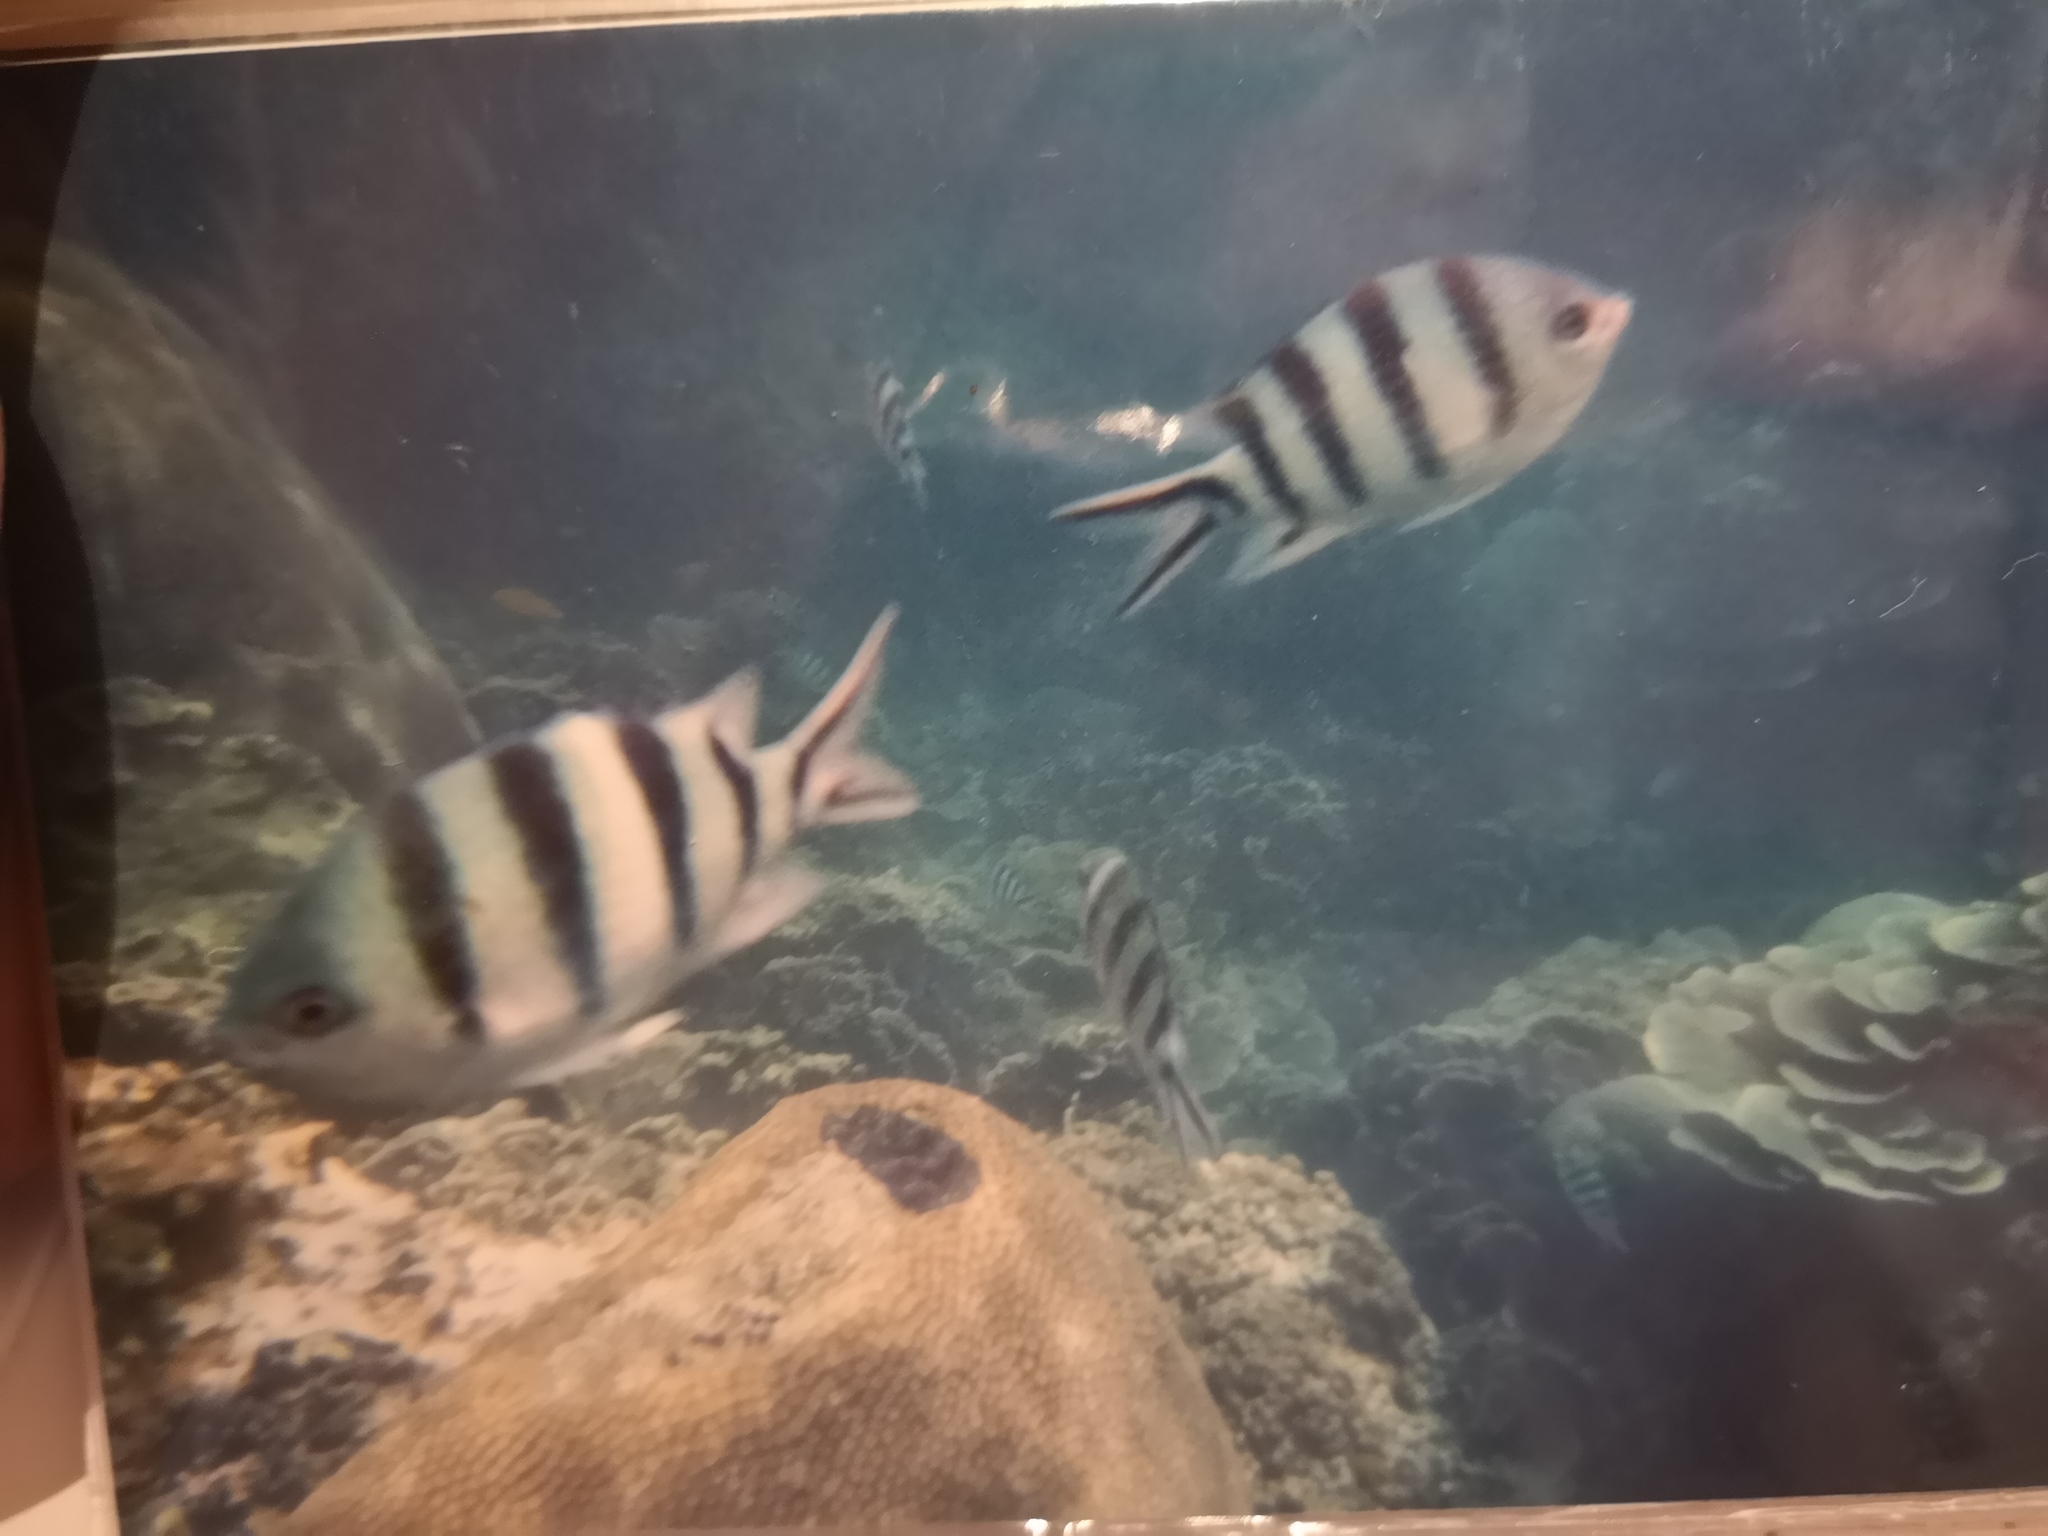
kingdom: Animalia
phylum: Chordata
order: Perciformes
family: Pomacentridae
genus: Abudefduf
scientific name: Abudefduf sexfasciatus
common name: Scissortail sergeant
